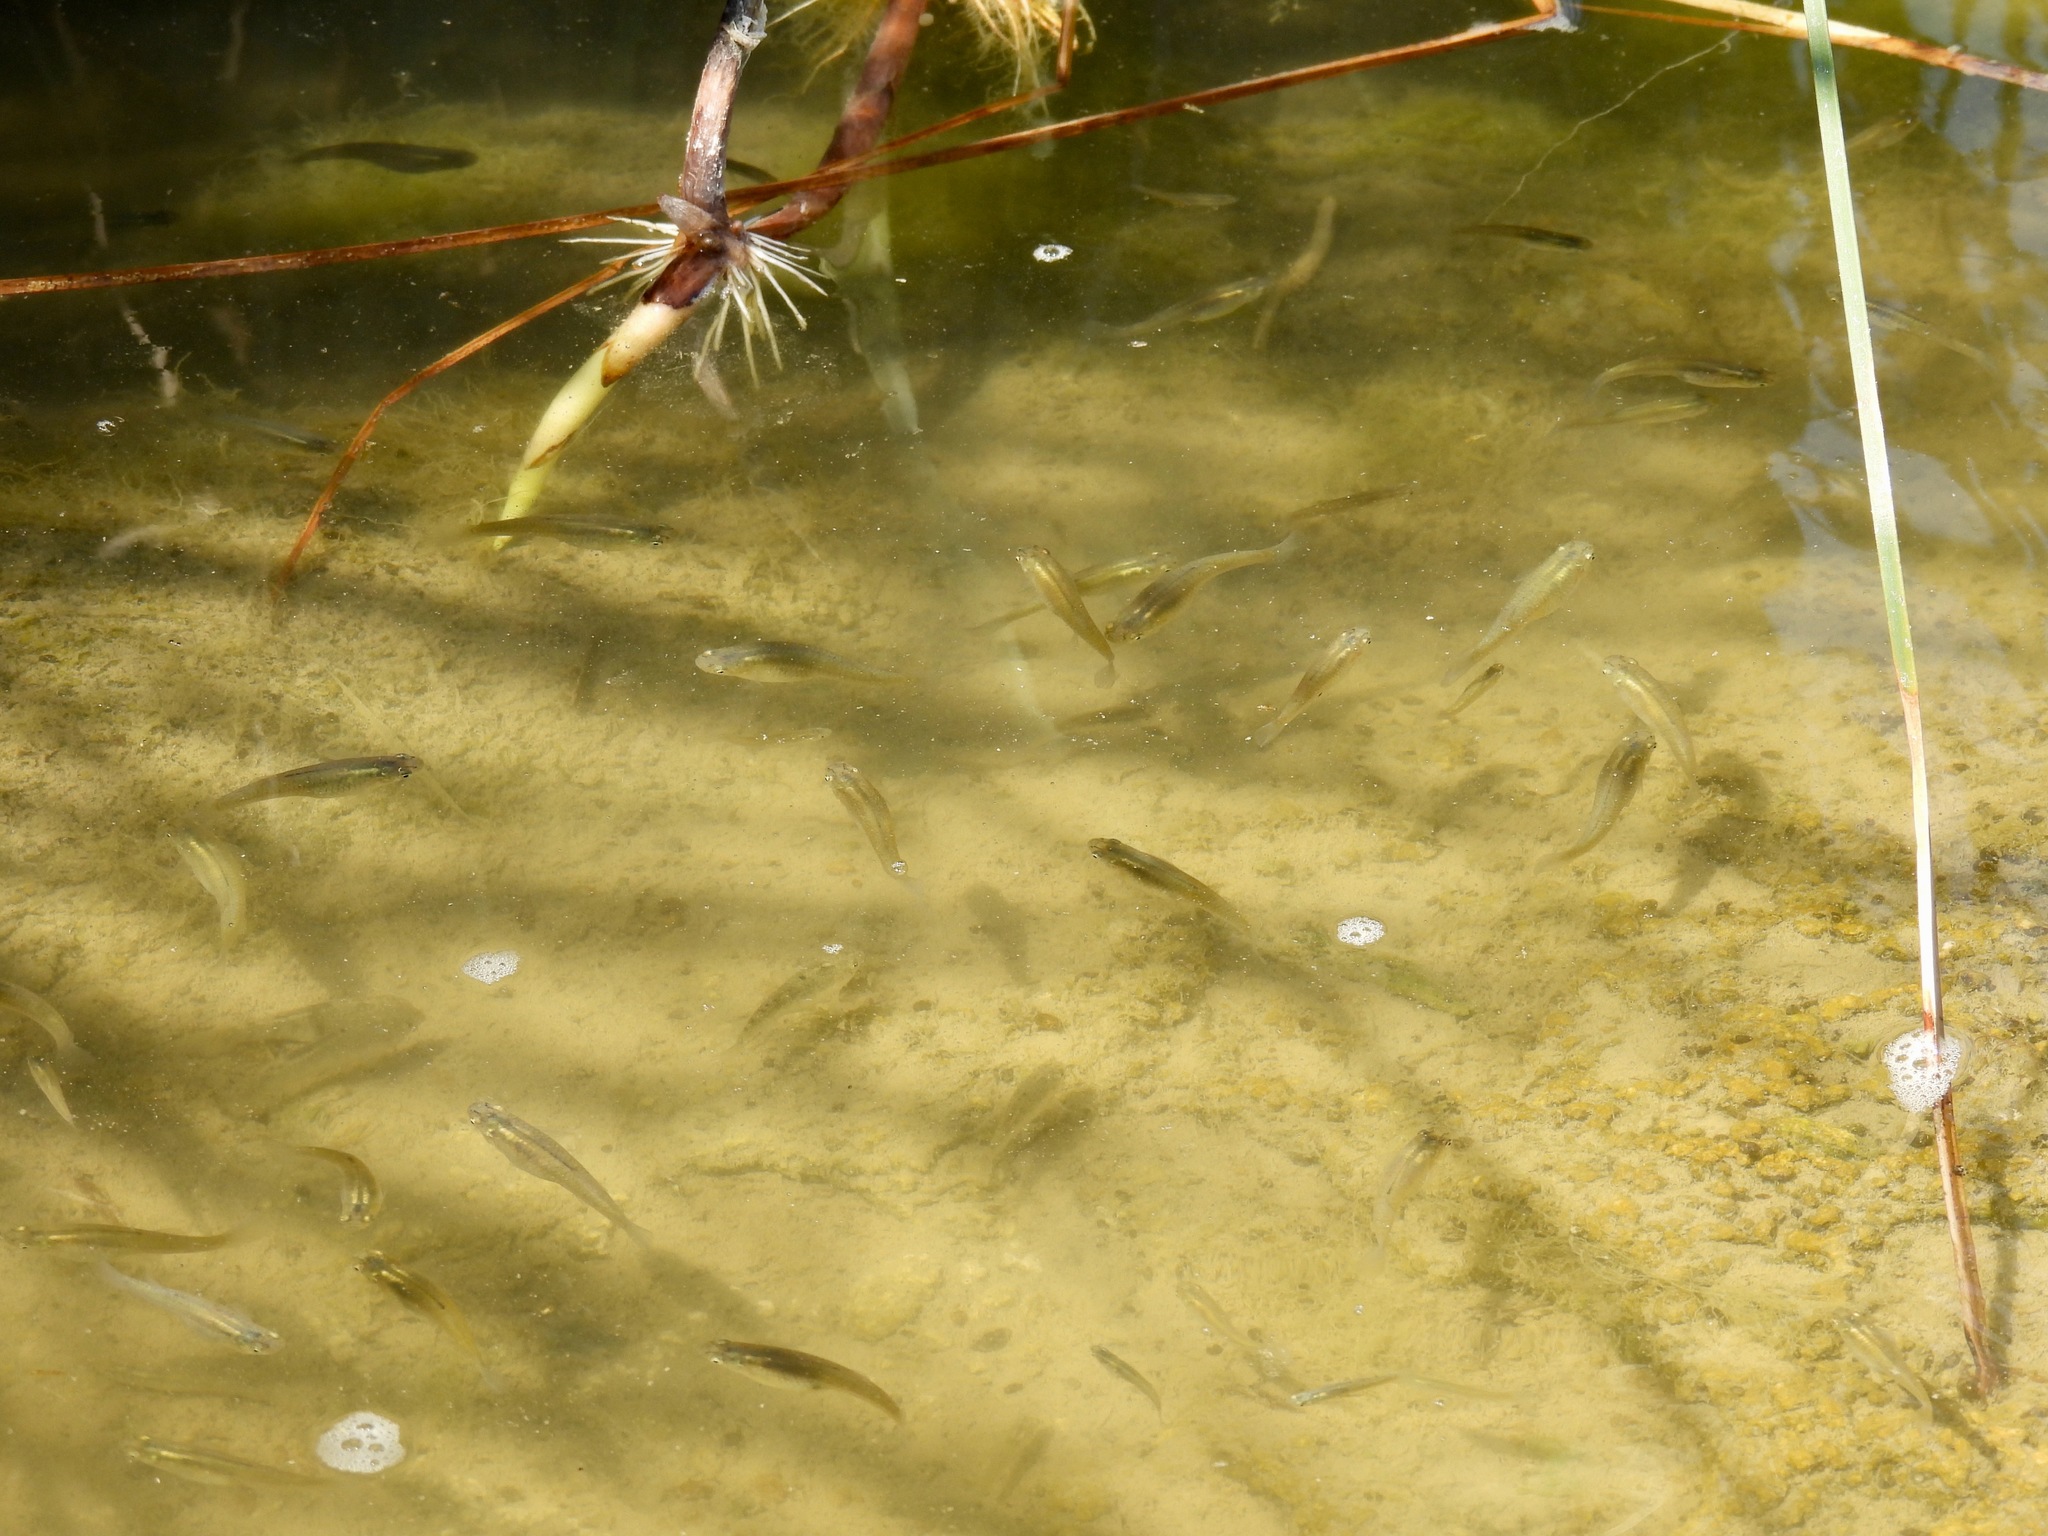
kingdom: Animalia
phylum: Chordata
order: Cyprinodontiformes
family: Poeciliidae
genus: Gambusia
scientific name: Gambusia affinis
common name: Mosquitofish
